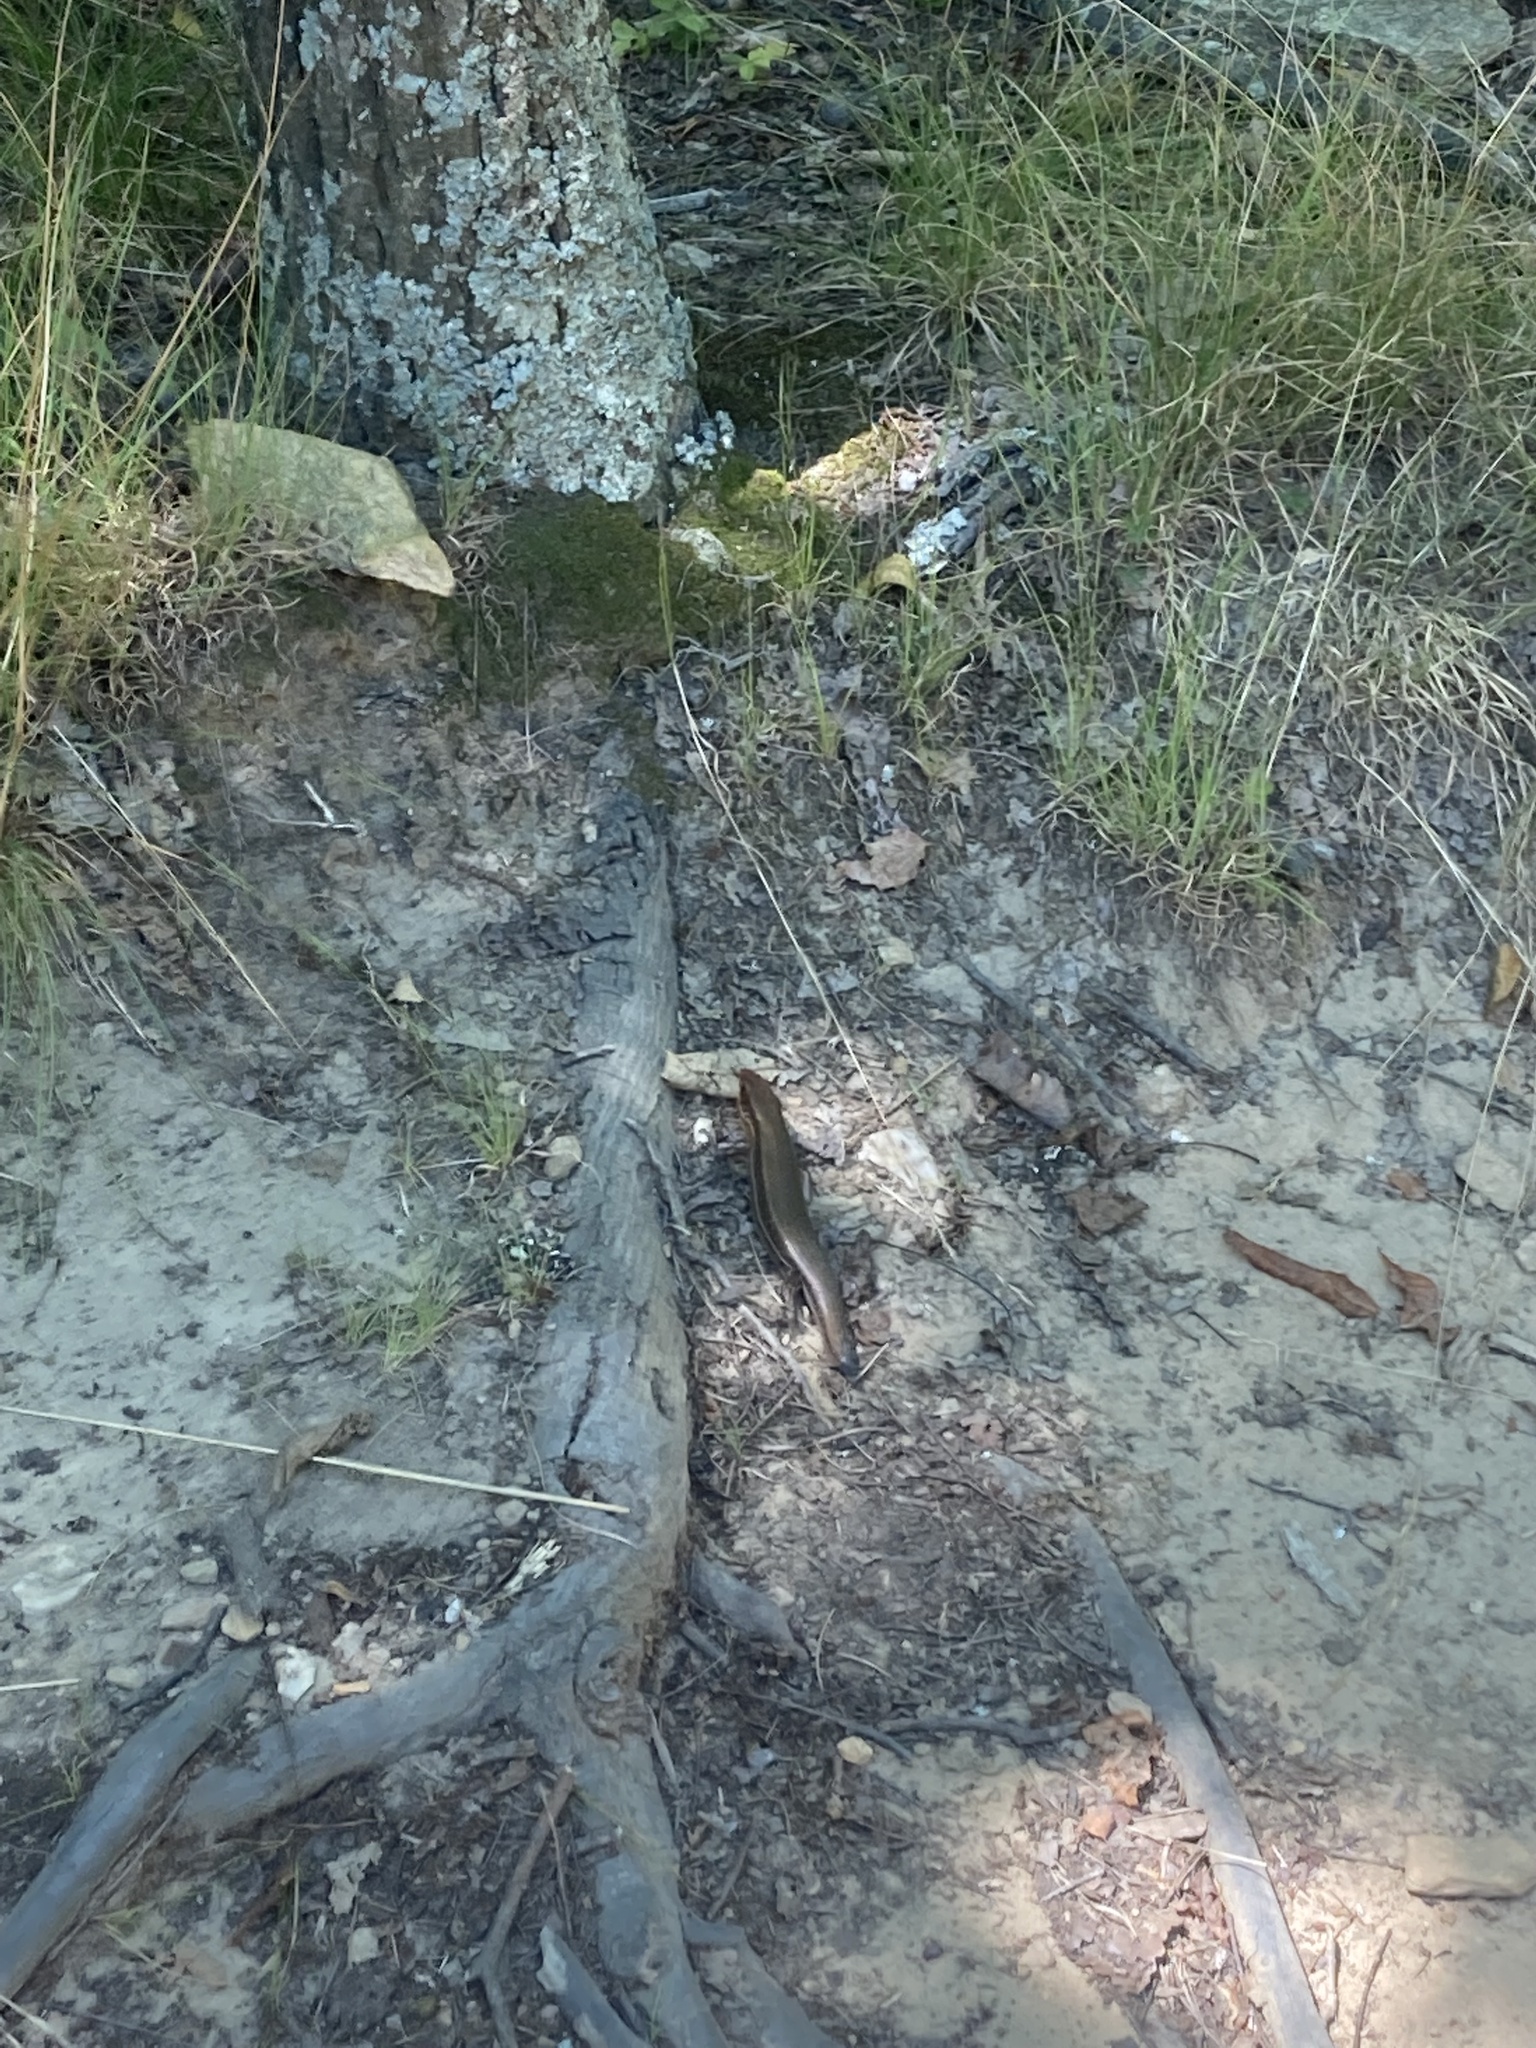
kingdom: Animalia
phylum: Chordata
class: Squamata
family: Scincidae
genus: Plestiodon
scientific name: Plestiodon laticeps
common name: Broadhead skink
